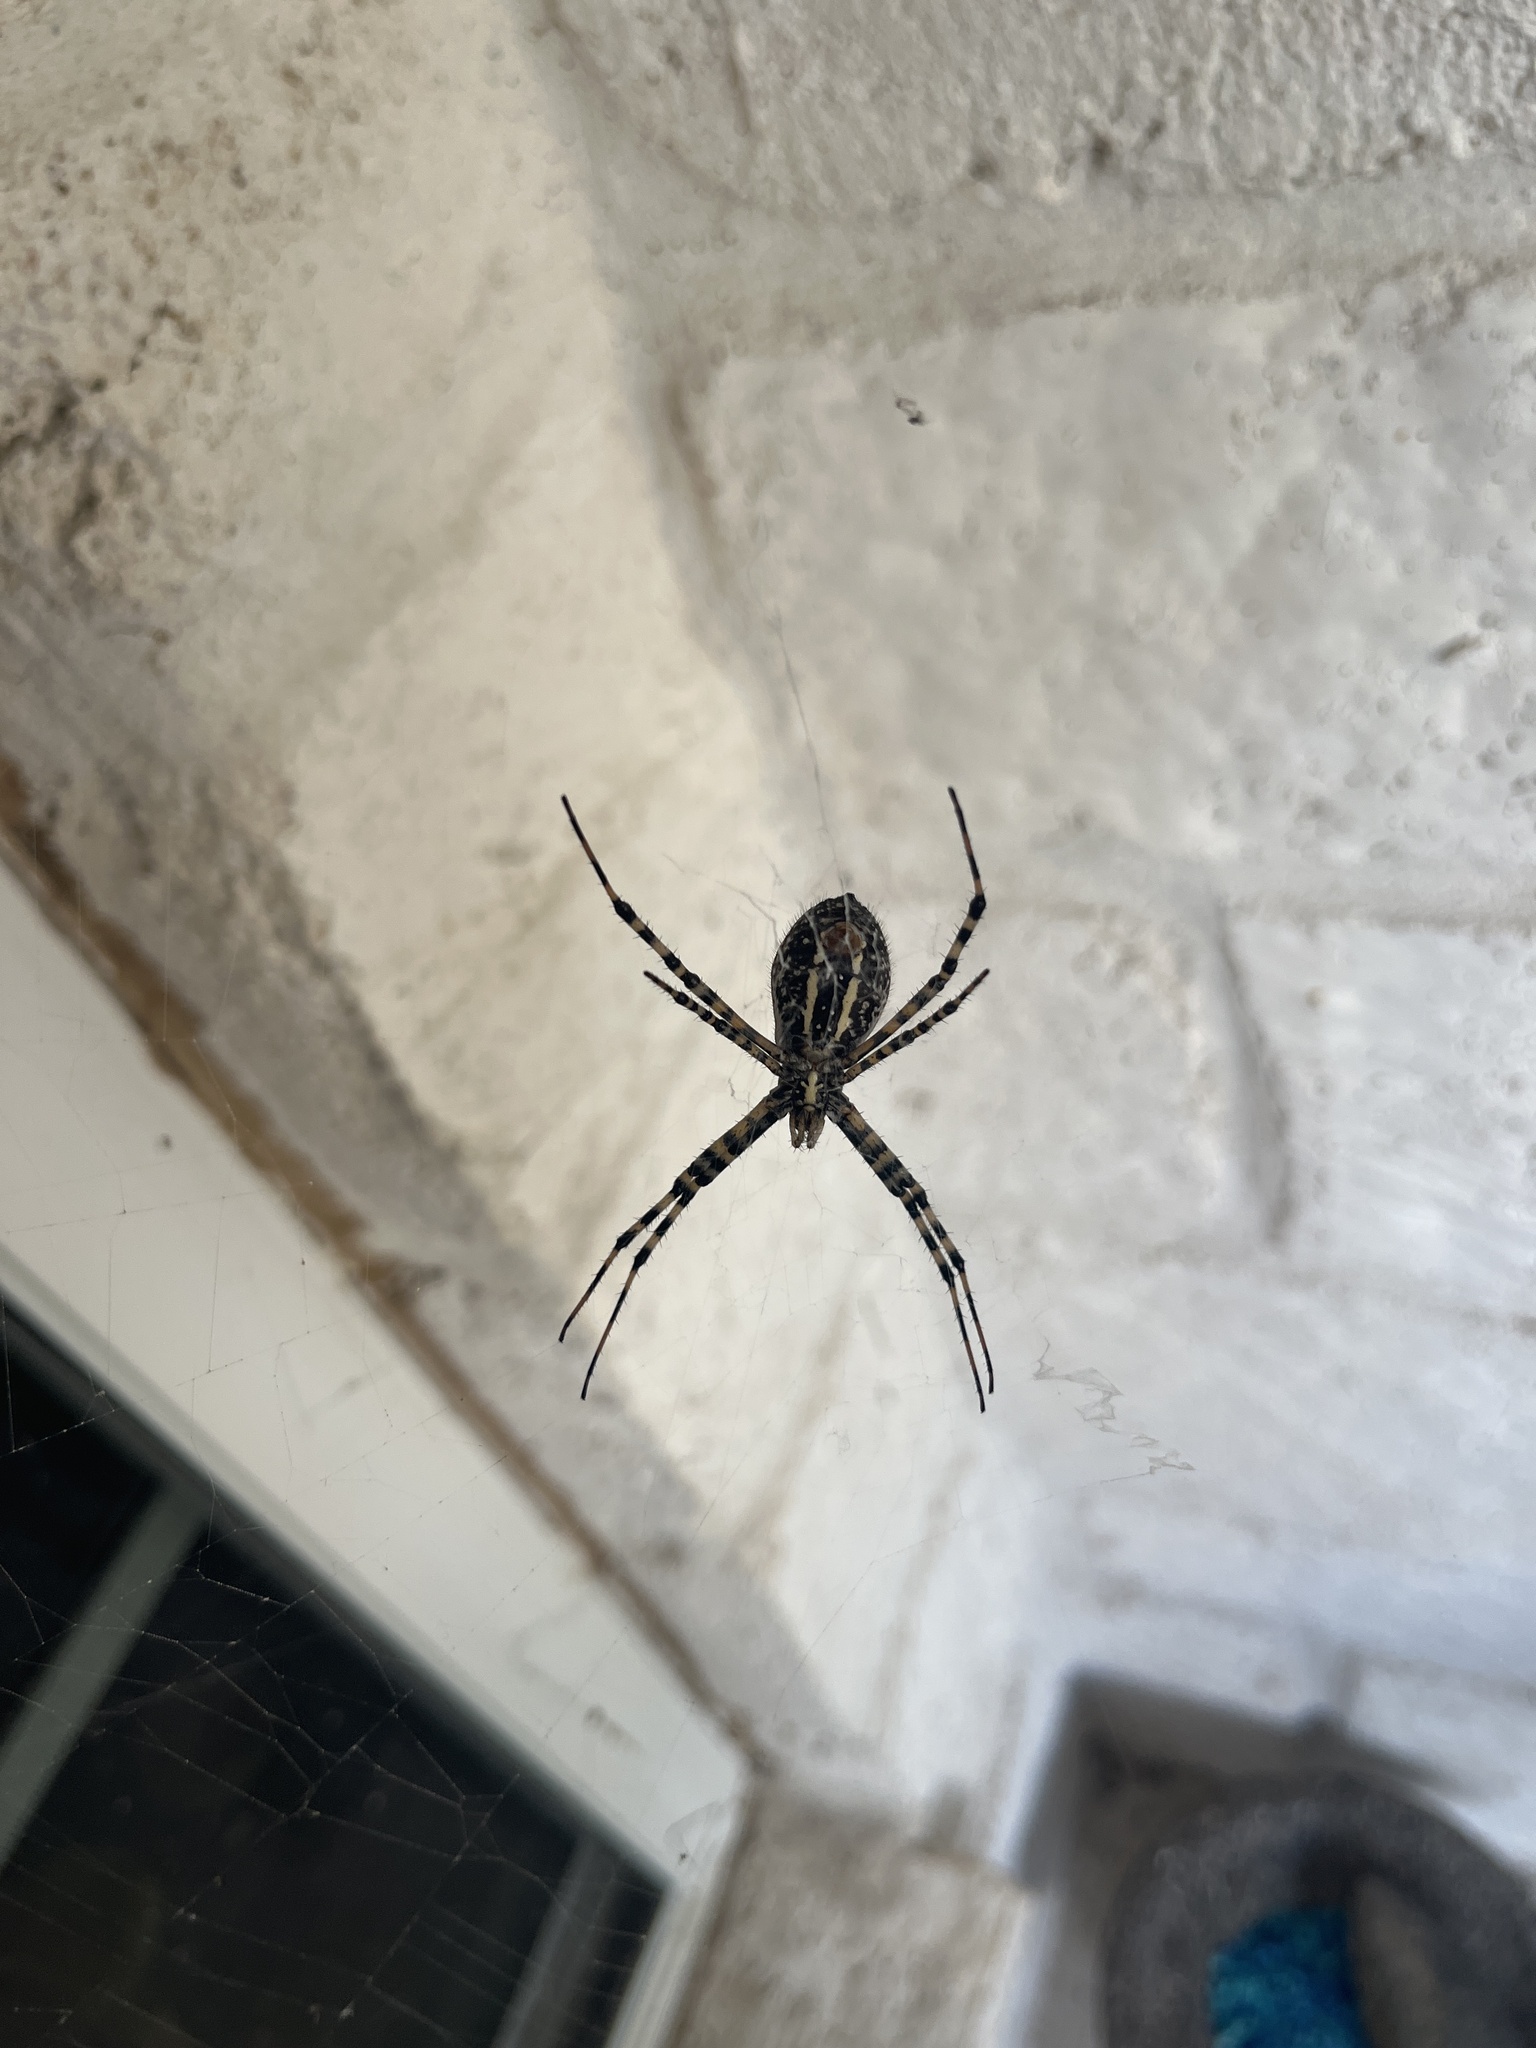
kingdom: Animalia
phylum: Arthropoda
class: Arachnida
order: Araneae
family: Araneidae
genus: Argiope
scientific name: Argiope trifasciata
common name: Banded garden spider
